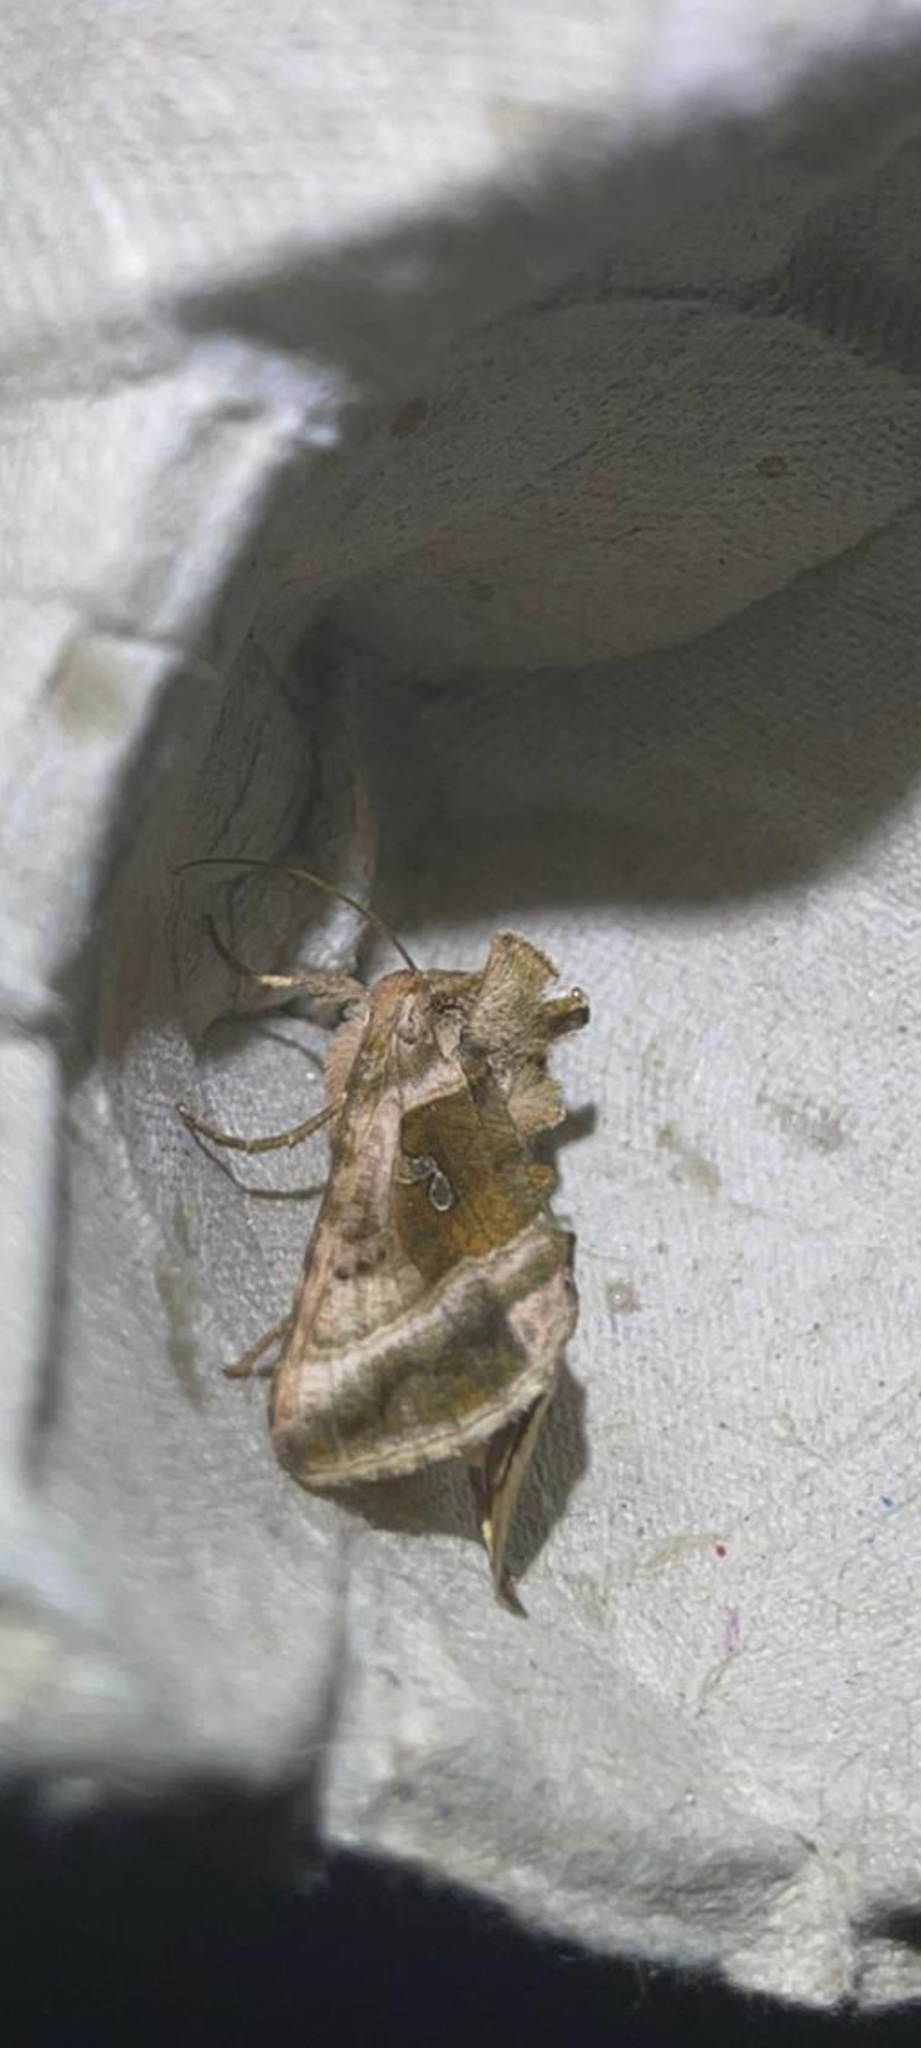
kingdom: Animalia
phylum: Arthropoda
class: Insecta
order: Lepidoptera
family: Noctuidae
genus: Autographa
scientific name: Autographa jota
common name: Plain golden y
